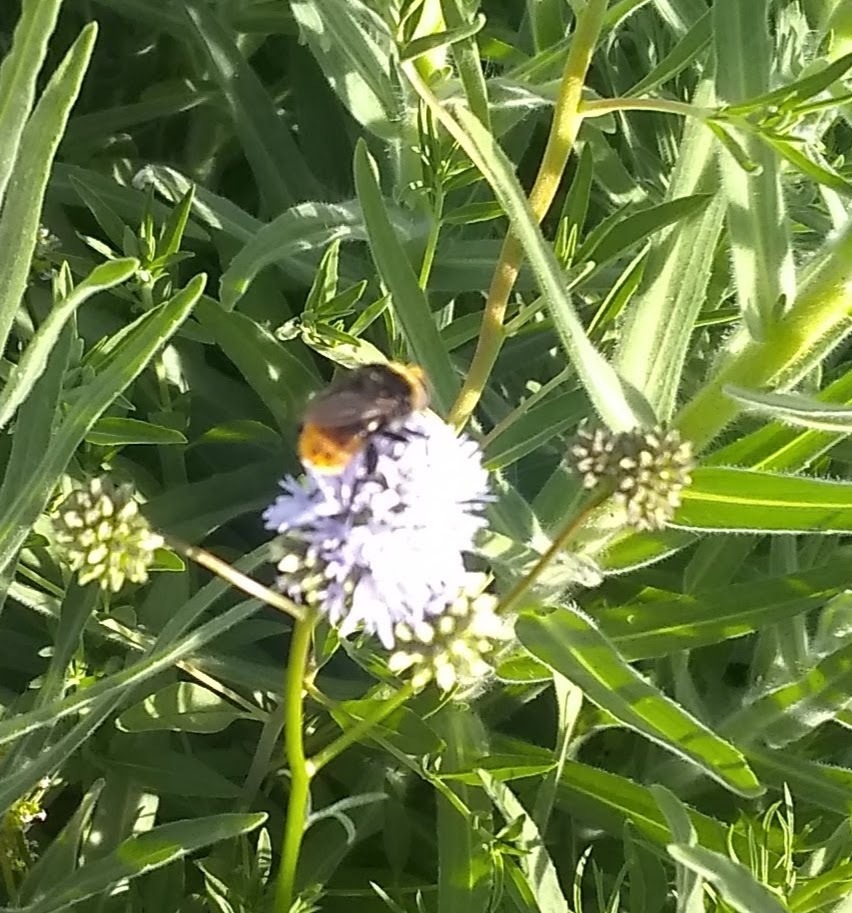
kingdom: Animalia
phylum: Arthropoda
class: Insecta
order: Diptera
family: Syrphidae
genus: Merodon
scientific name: Merodon equestris
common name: Greater bulb-fly
